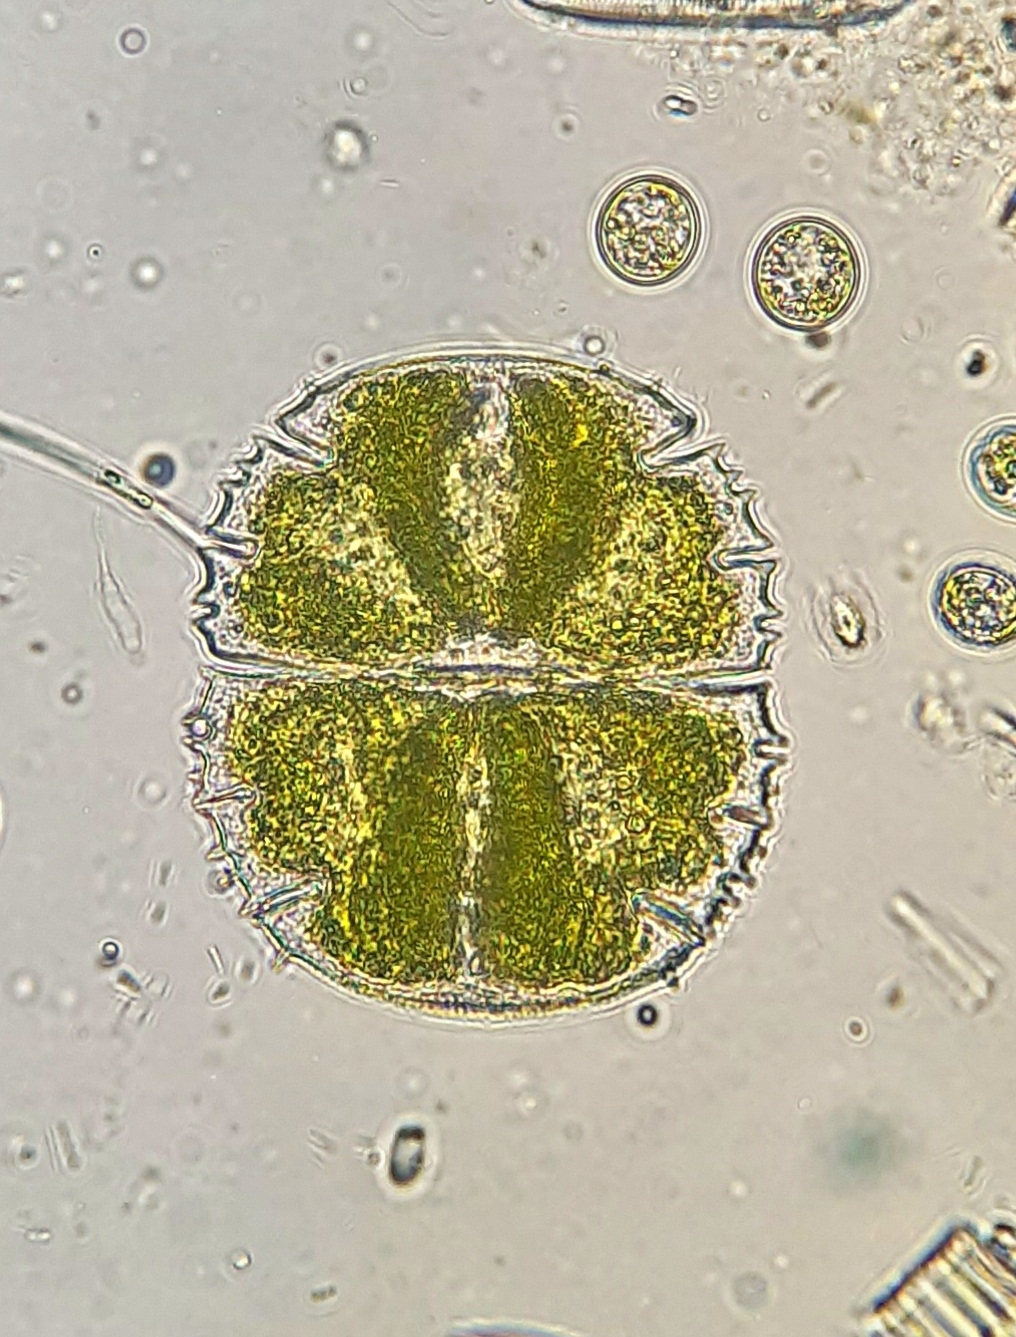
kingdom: Plantae
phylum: Charophyta
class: Conjugatophyceae
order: Desmidiales
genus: Micrasterias
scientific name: Micrasterias truncata
